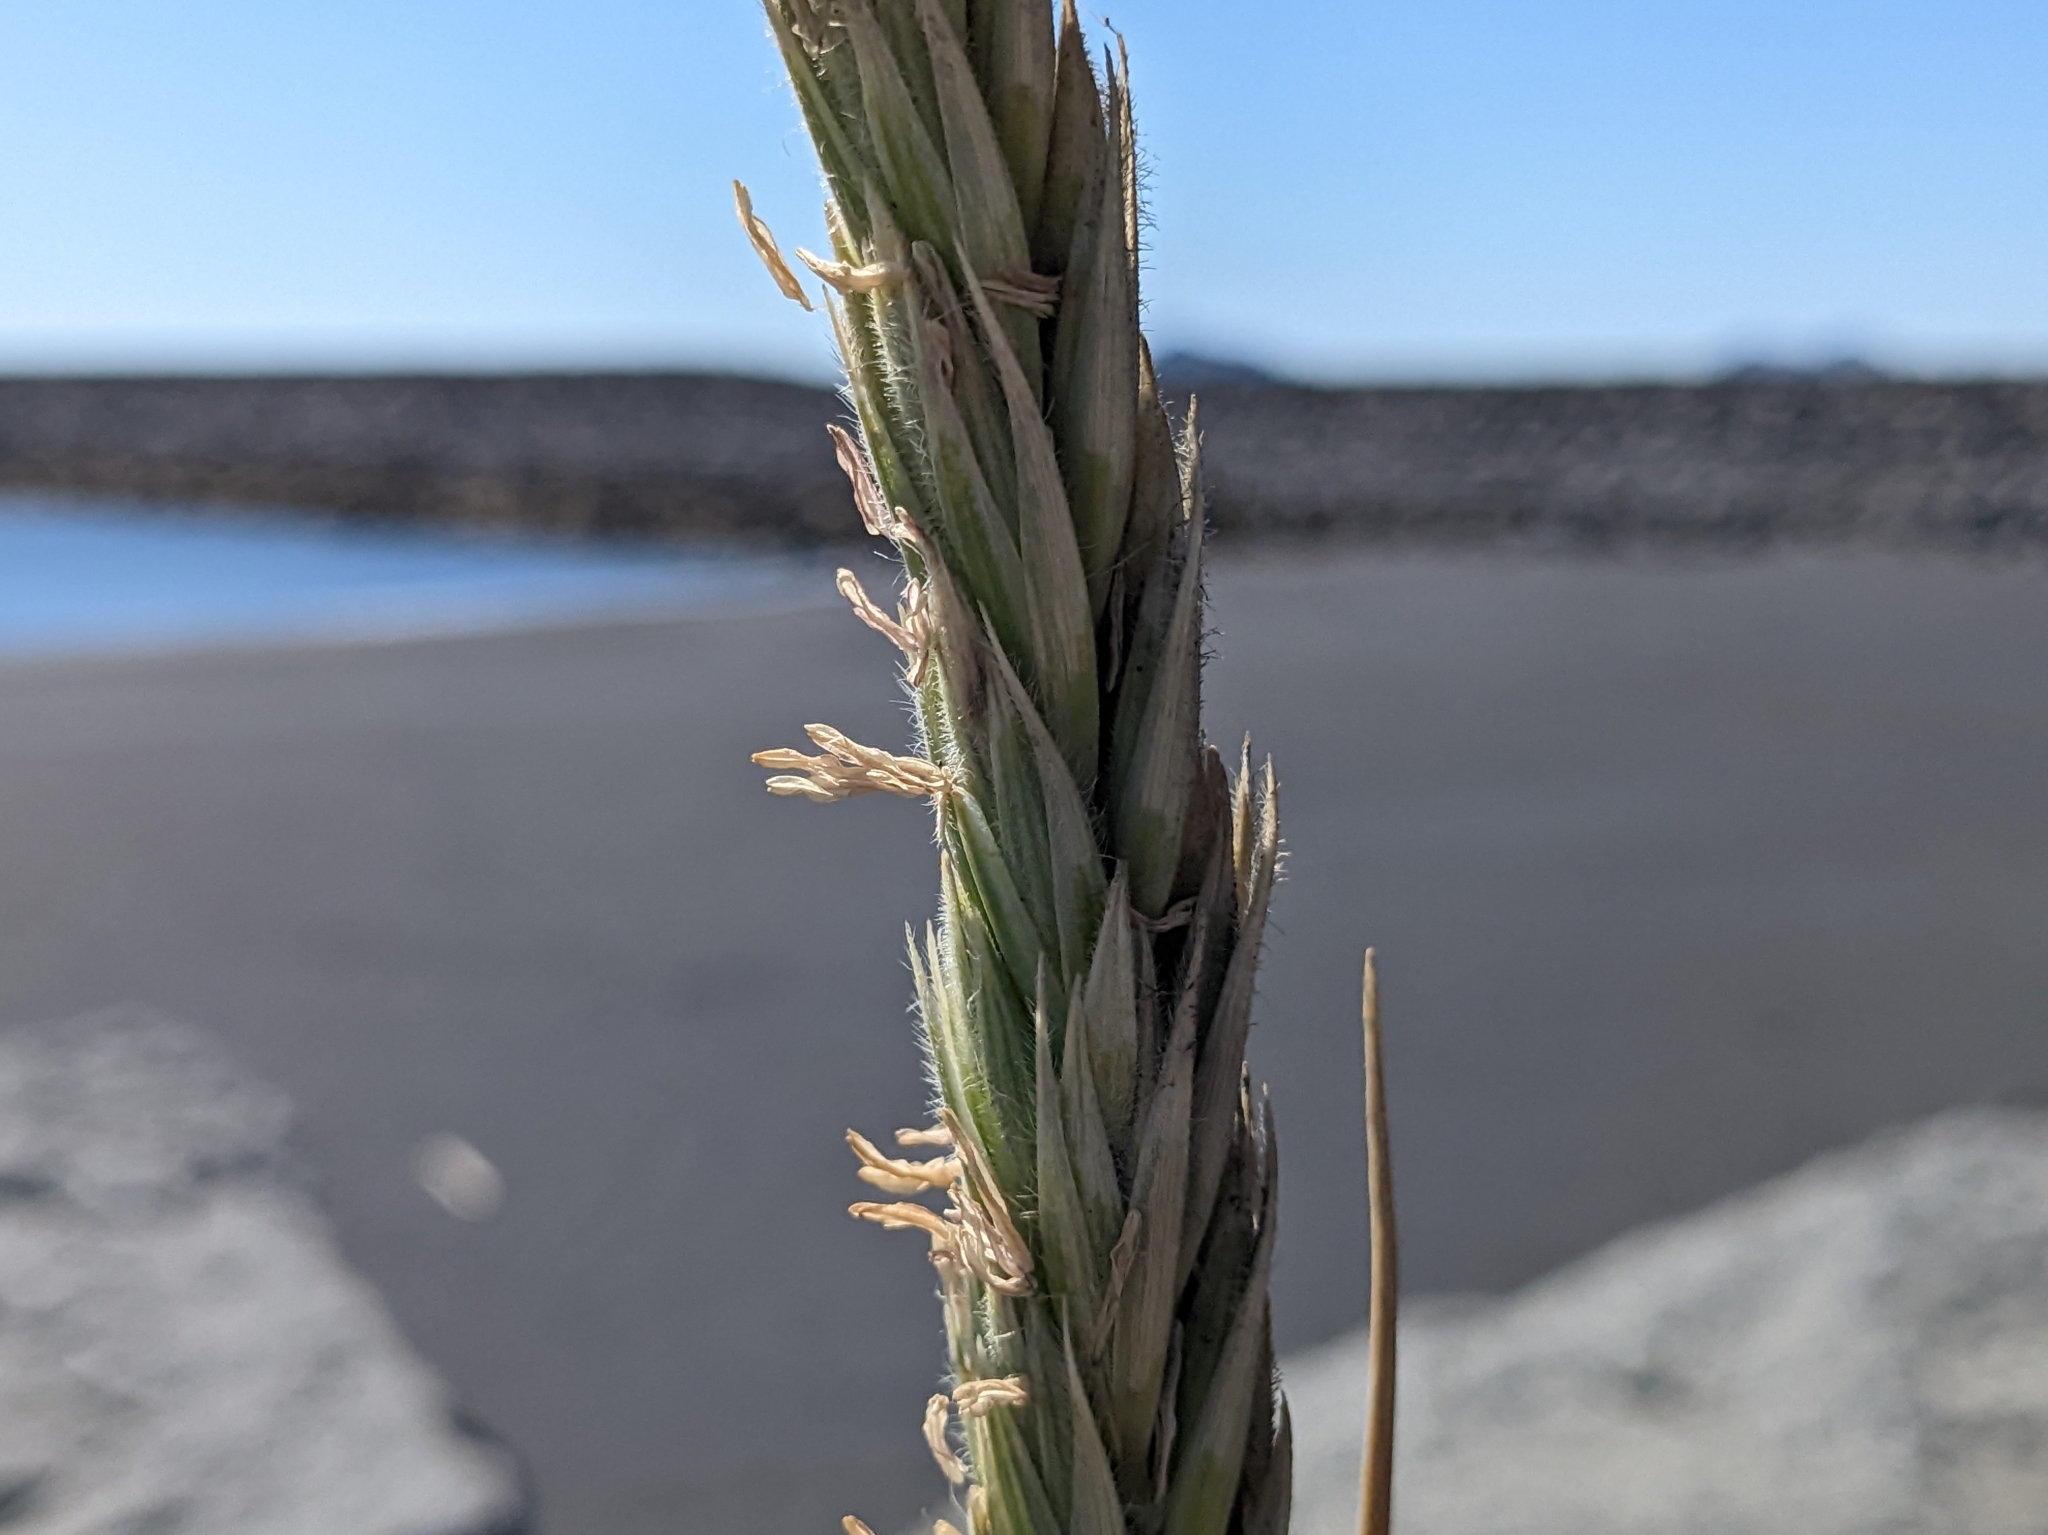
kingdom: Plantae
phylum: Tracheophyta
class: Liliopsida
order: Poales
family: Poaceae
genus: Leymus
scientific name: Leymus arenarius
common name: Lyme-grass
